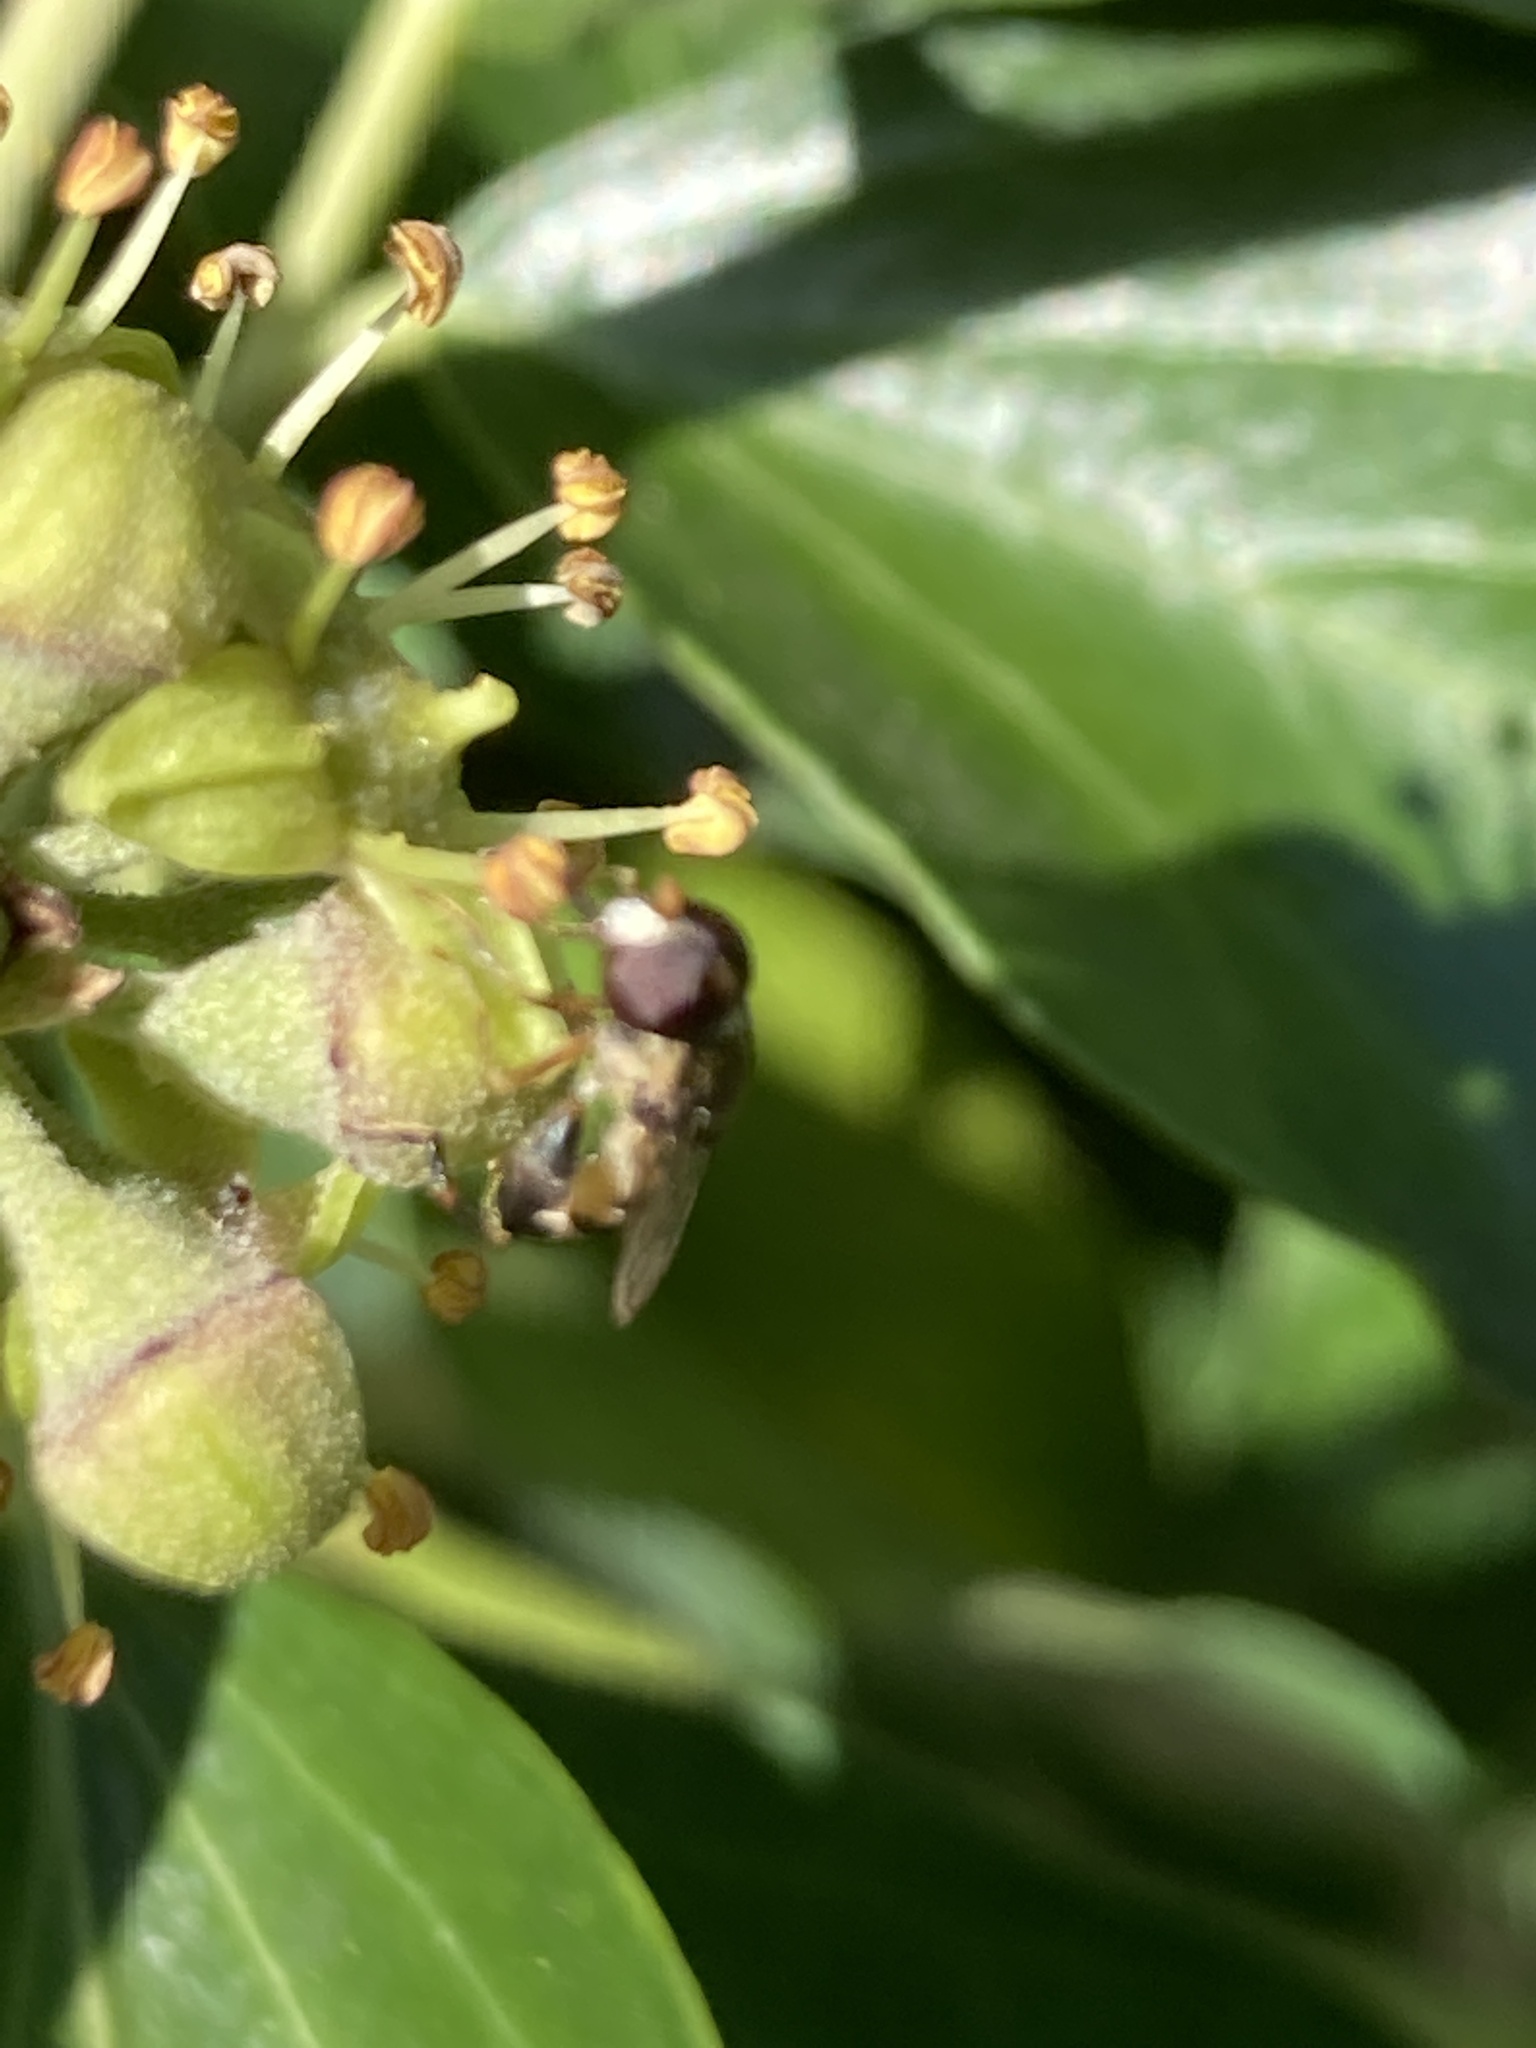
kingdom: Animalia
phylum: Arthropoda
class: Insecta
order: Diptera
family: Syrphidae
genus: Syritta
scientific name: Syritta pipiens
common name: Hover fly
